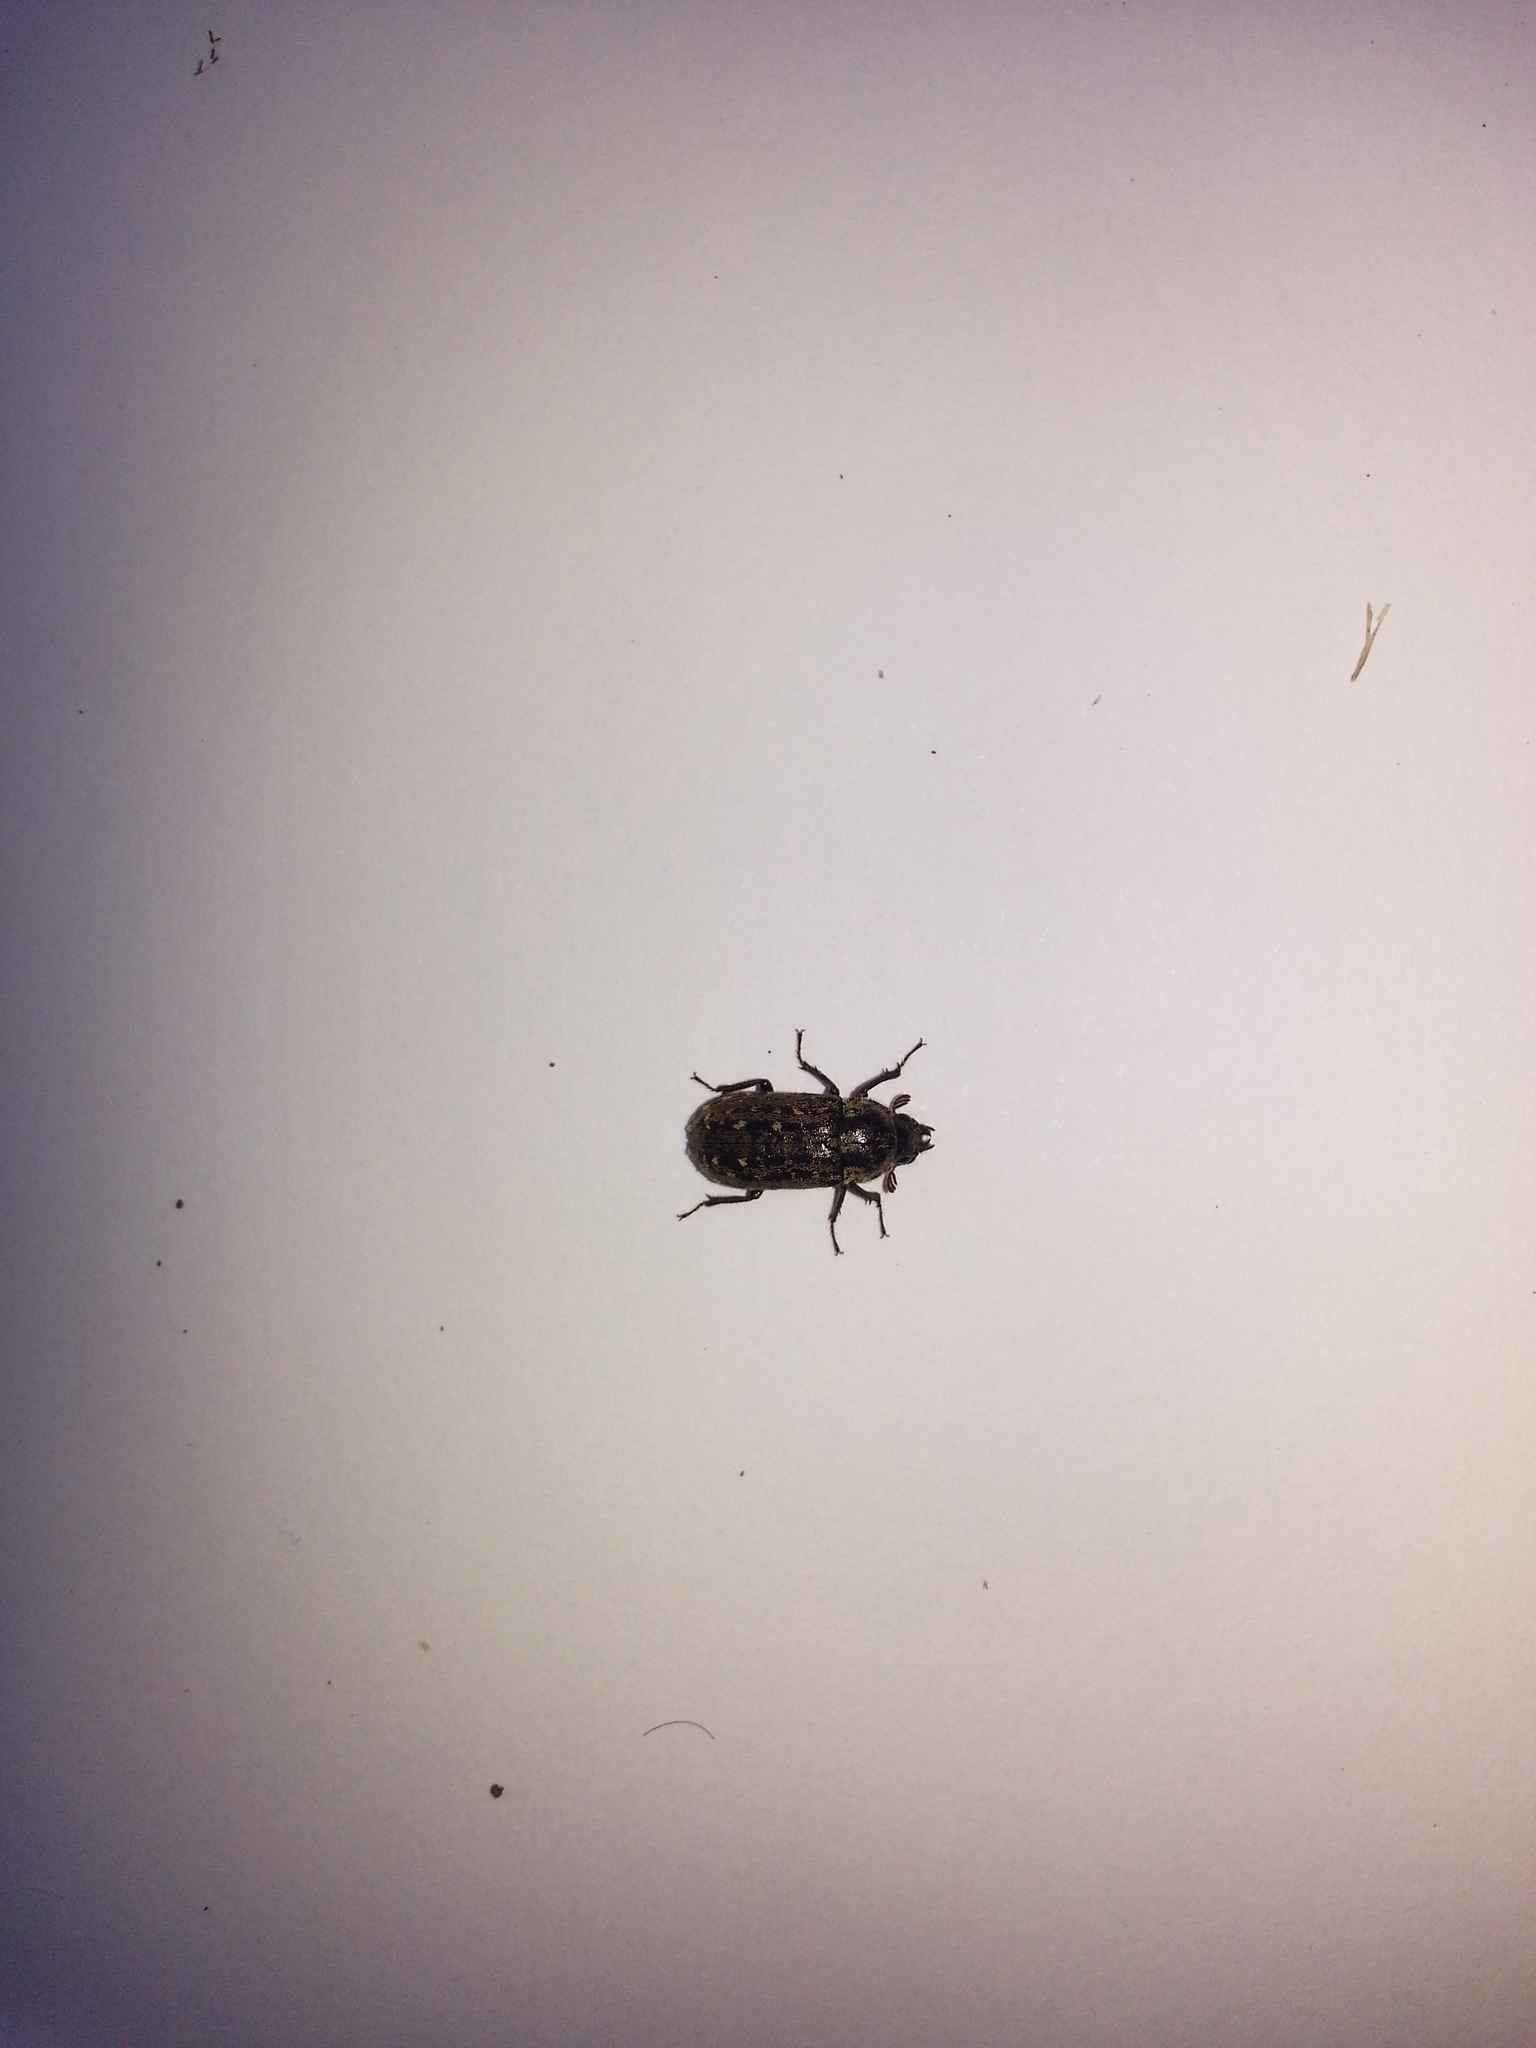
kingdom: Animalia
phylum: Arthropoda
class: Insecta
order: Coleoptera
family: Lucanidae
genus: Mitophyllus
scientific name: Mitophyllus irroratus
